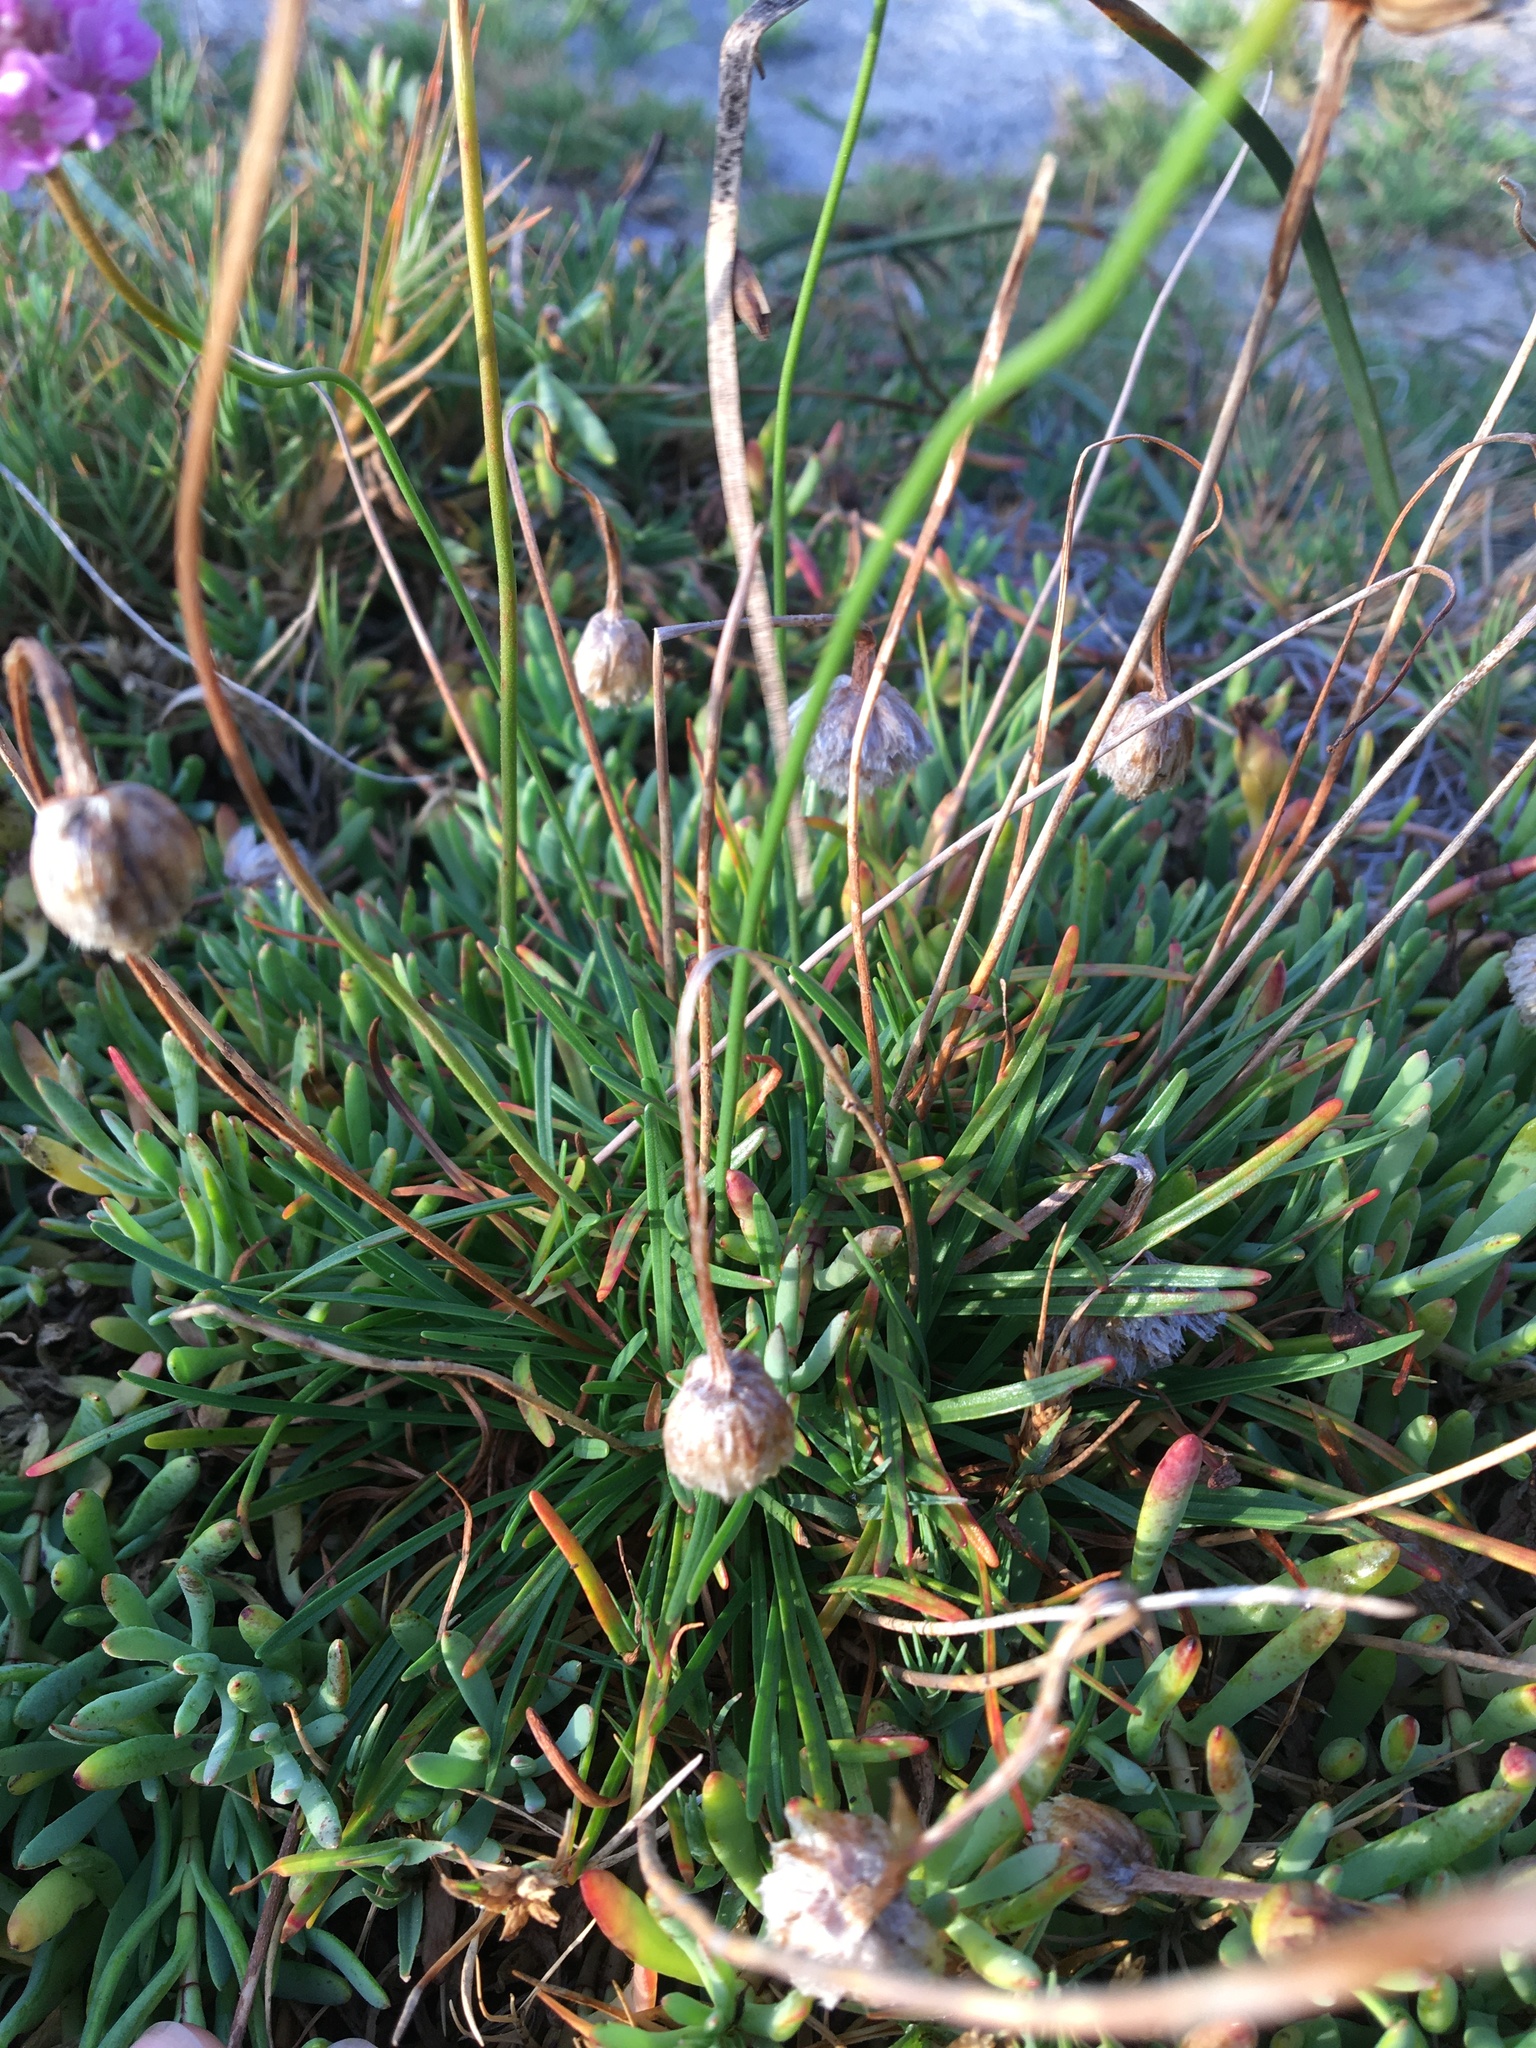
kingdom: Plantae
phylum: Tracheophyta
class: Magnoliopsida
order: Caryophyllales
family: Plumbaginaceae
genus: Armeria
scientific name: Armeria maritima
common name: Thrift
